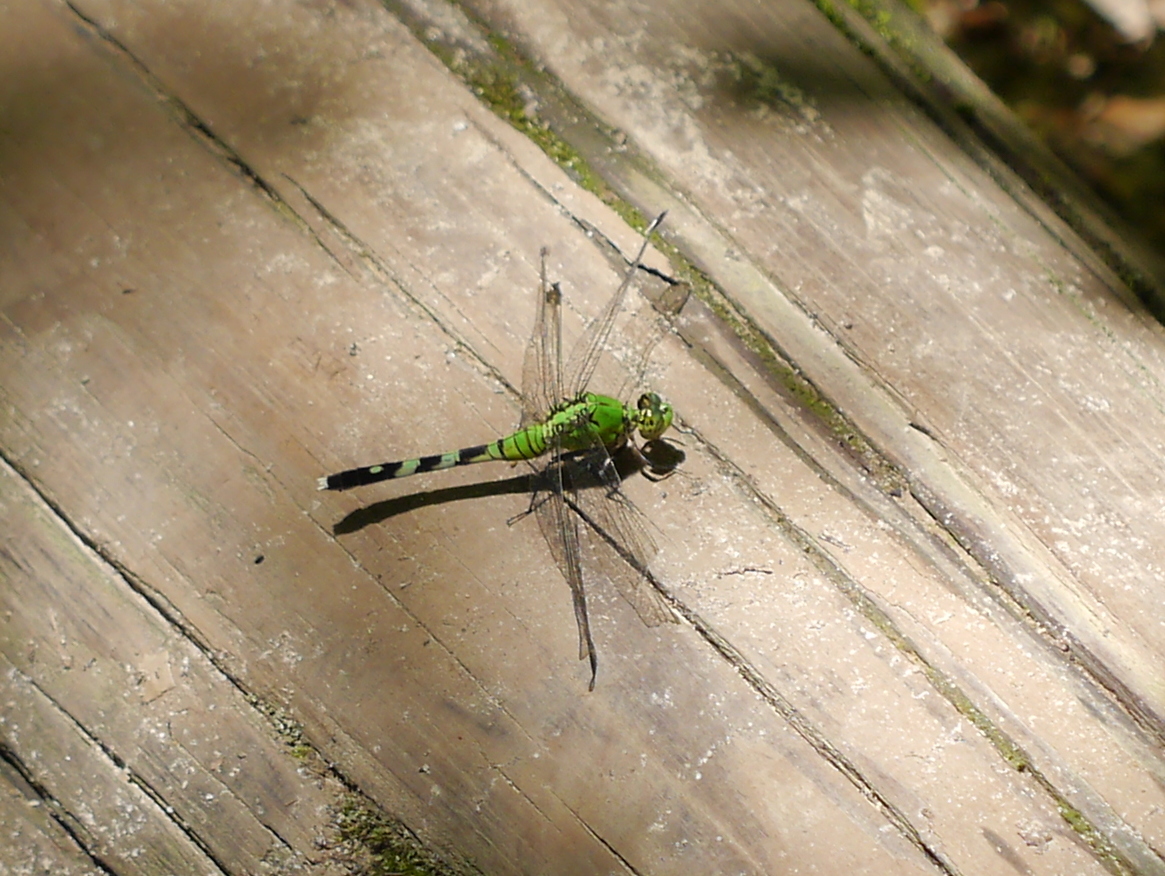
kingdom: Animalia
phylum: Arthropoda
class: Insecta
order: Odonata
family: Libellulidae
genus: Erythemis
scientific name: Erythemis simplicicollis
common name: Eastern pondhawk
